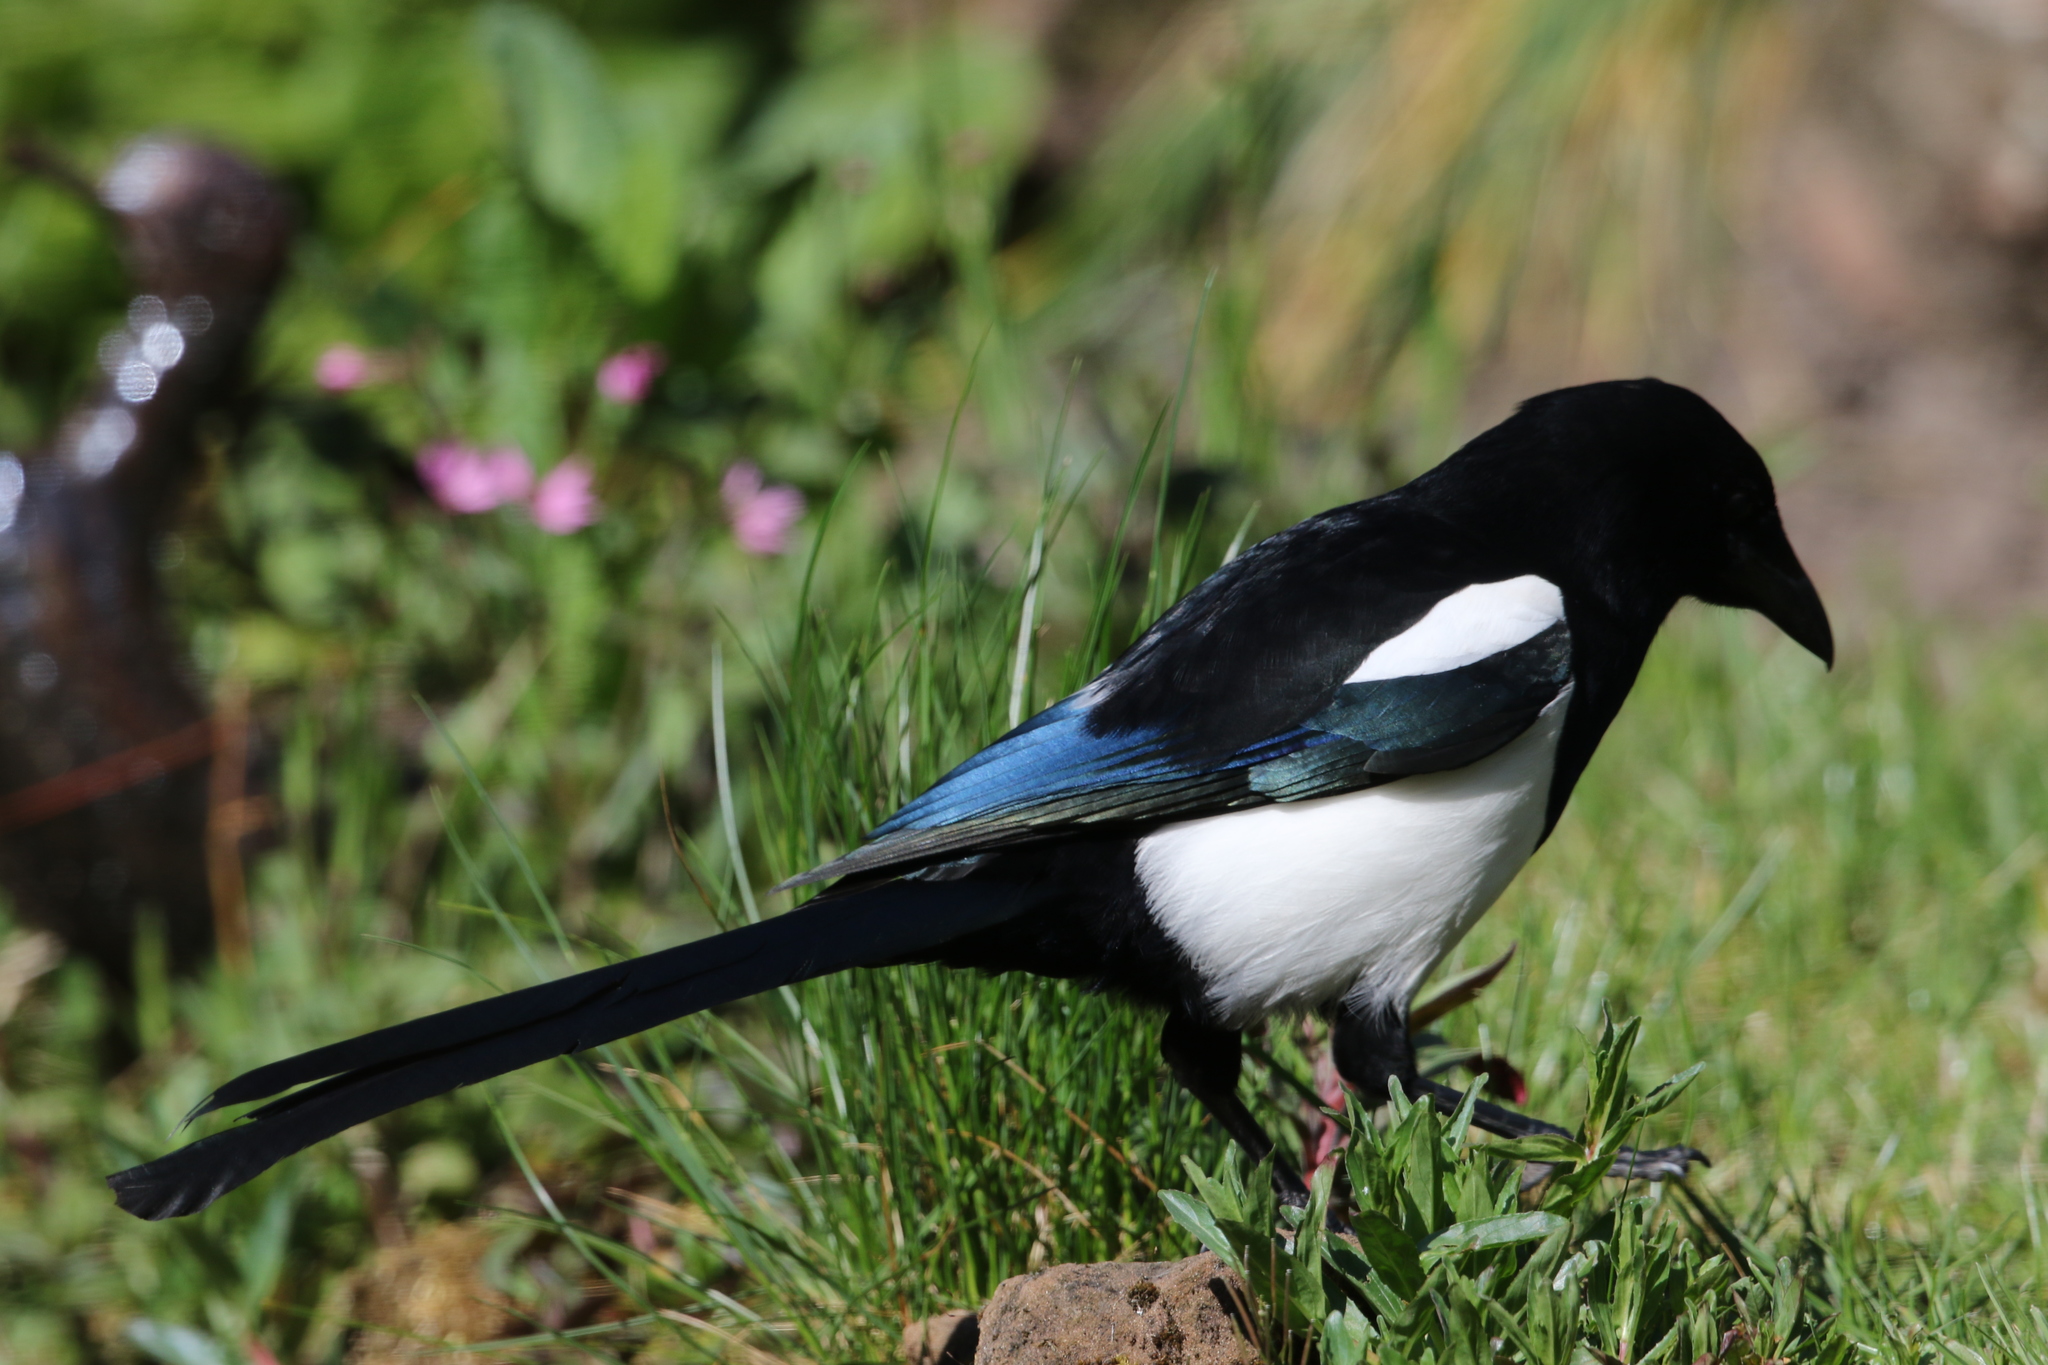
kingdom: Animalia
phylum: Chordata
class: Aves
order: Passeriformes
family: Corvidae
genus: Pica
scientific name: Pica pica
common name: Eurasian magpie
